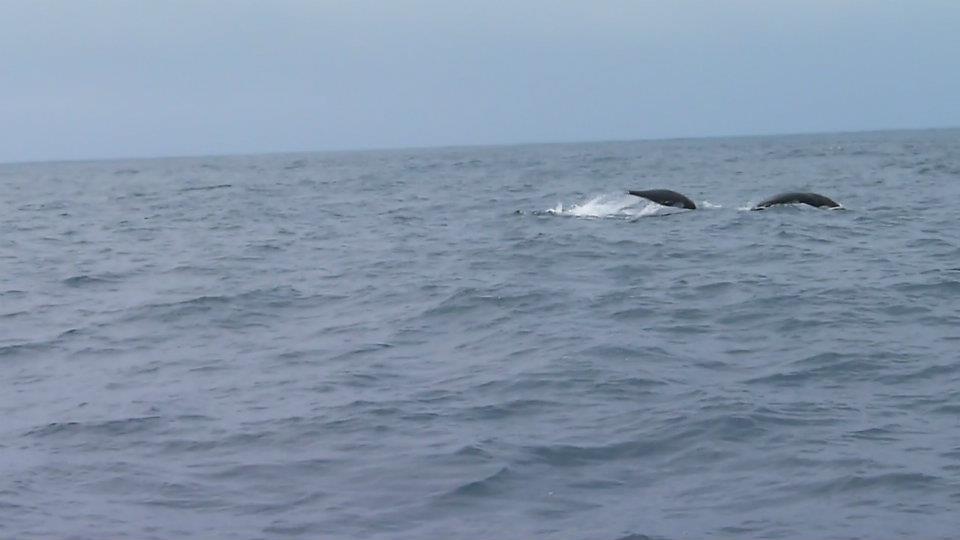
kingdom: Animalia
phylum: Chordata
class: Mammalia
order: Cetacea
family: Delphinidae
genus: Lissodelphis
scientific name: Lissodelphis borealis
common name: Northern right whale dolphin
